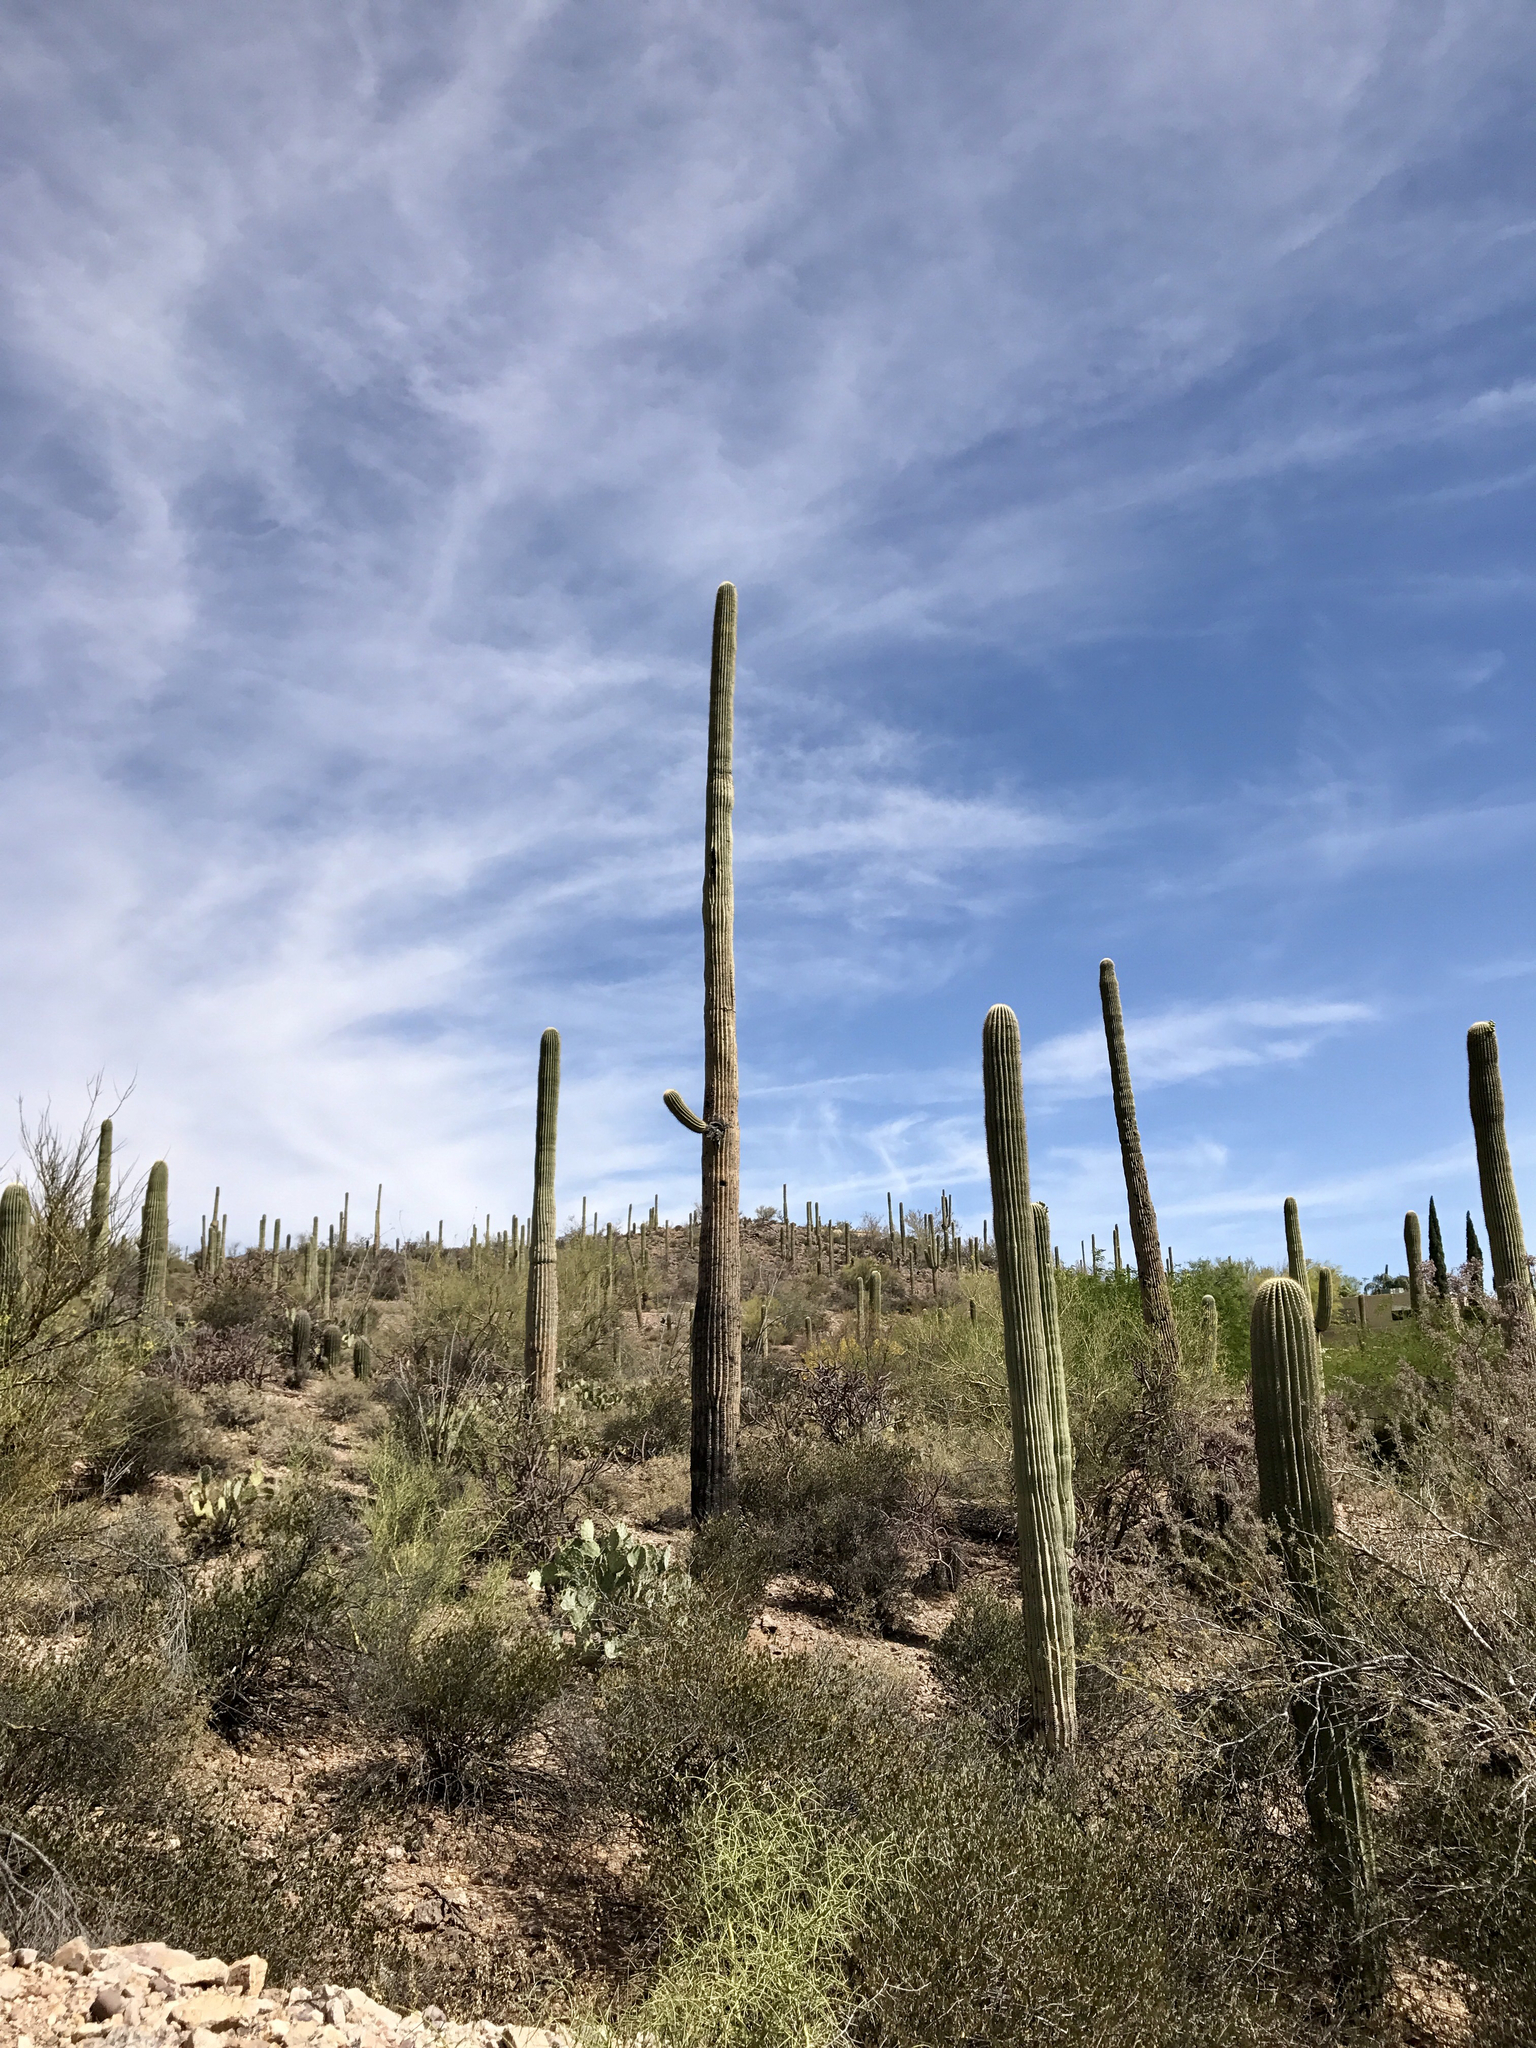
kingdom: Plantae
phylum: Tracheophyta
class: Magnoliopsida
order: Caryophyllales
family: Cactaceae
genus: Carnegiea
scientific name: Carnegiea gigantea
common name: Saguaro
